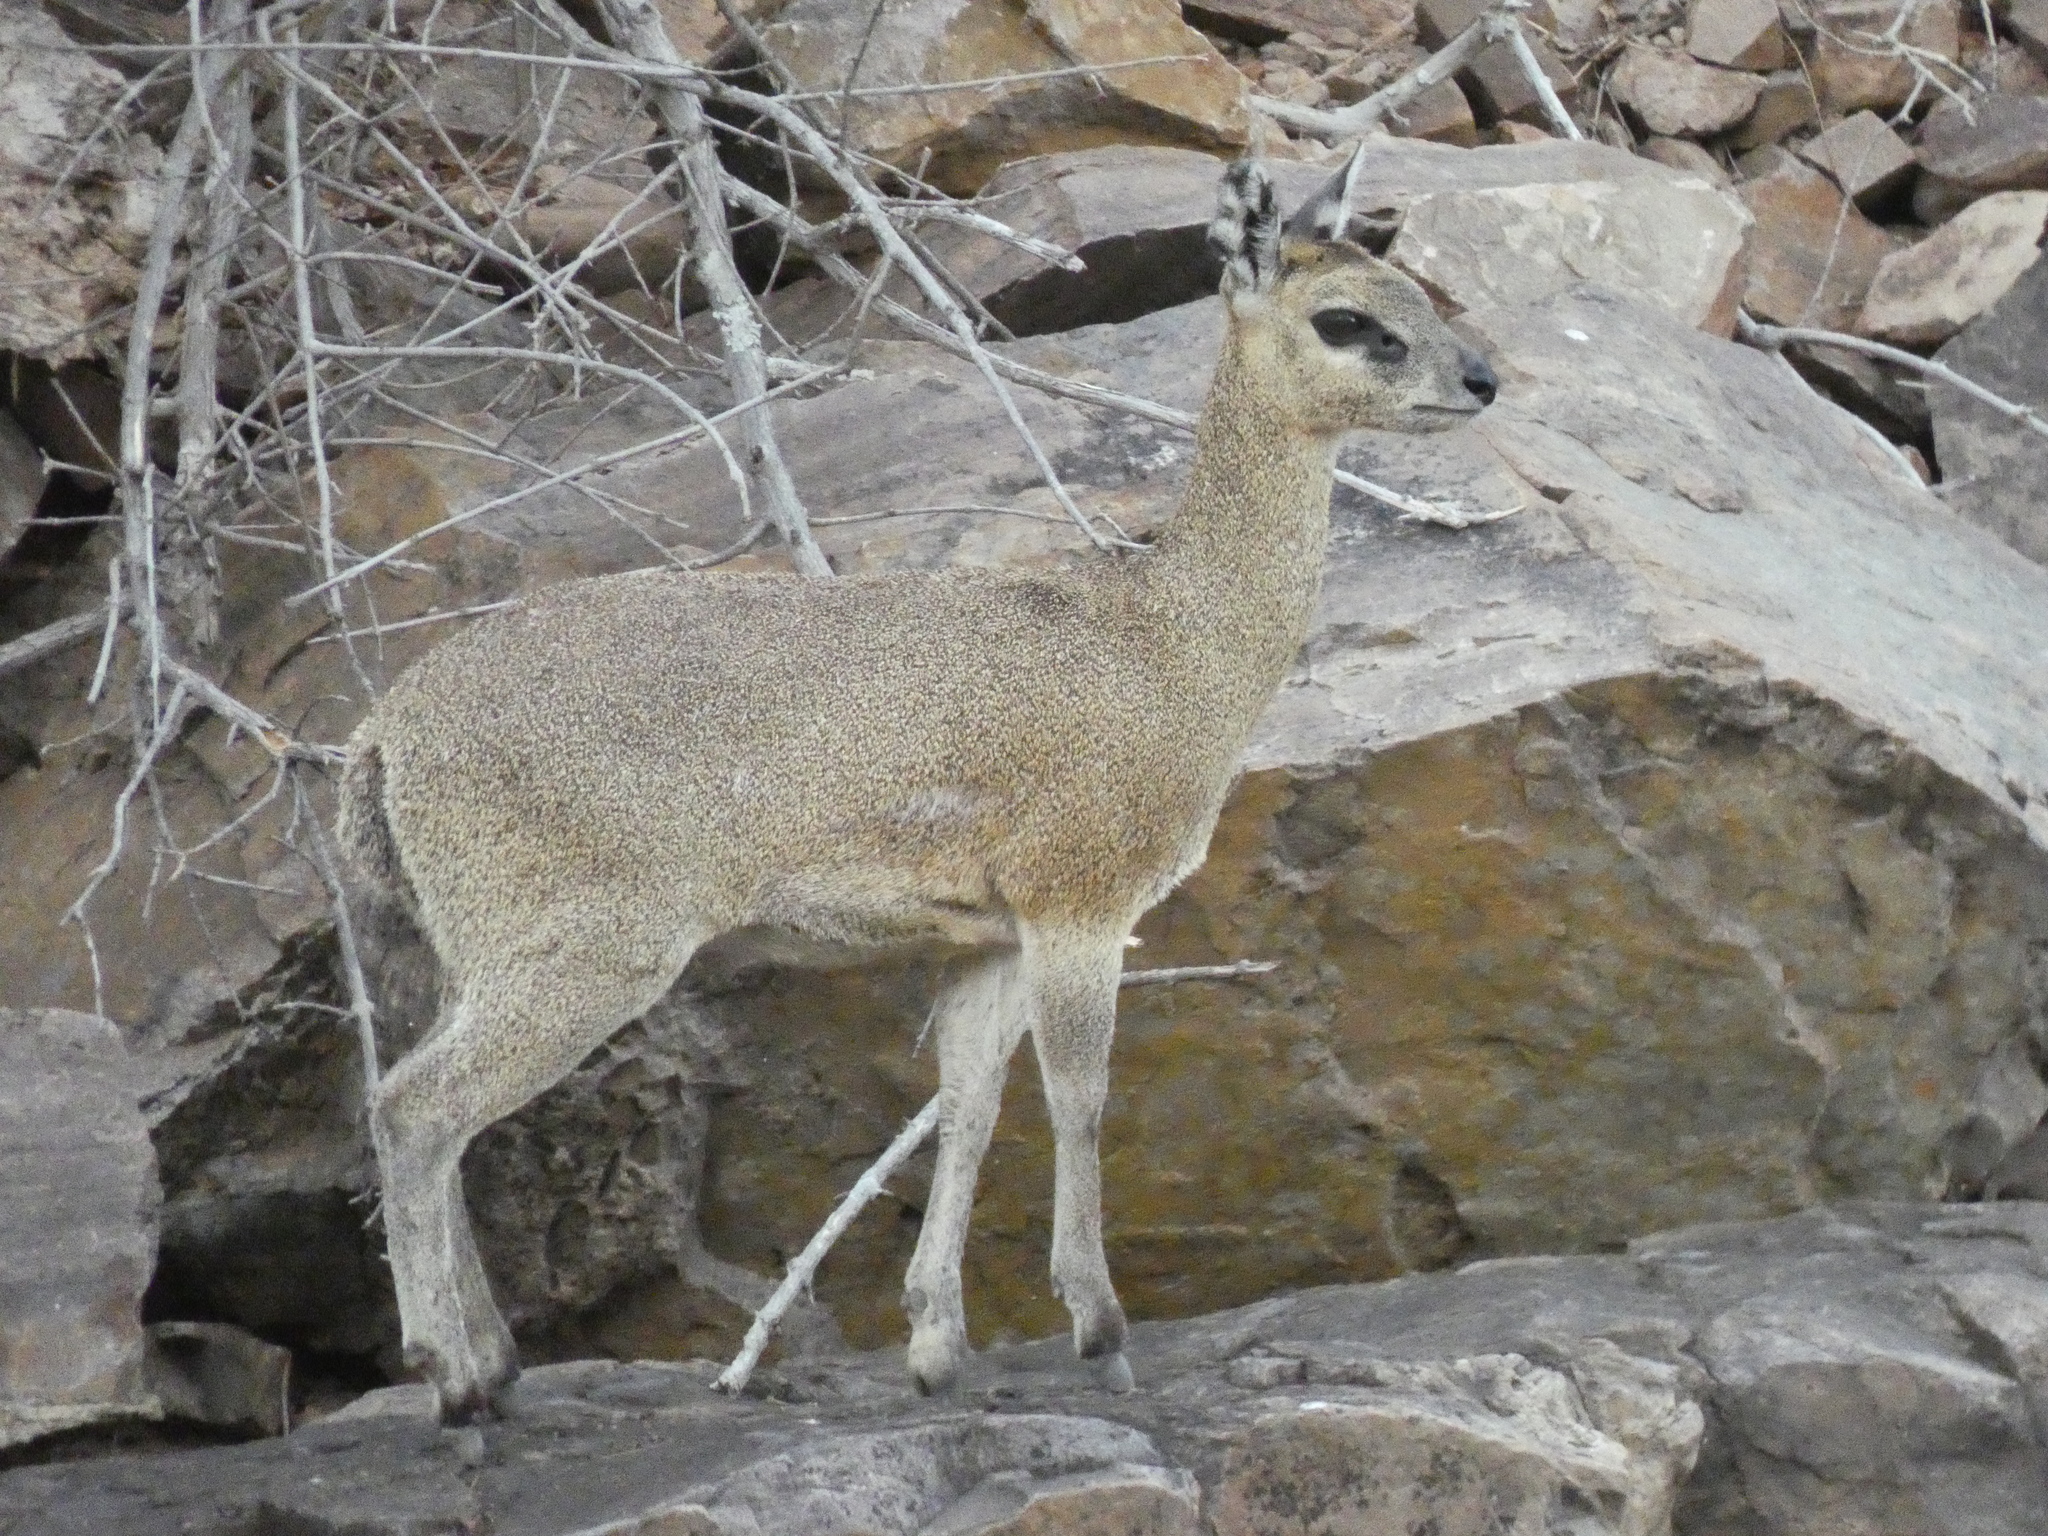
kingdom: Animalia
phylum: Chordata
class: Mammalia
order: Artiodactyla
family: Bovidae
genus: Oreotragus
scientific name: Oreotragus oreotragus
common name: Klipspringer
